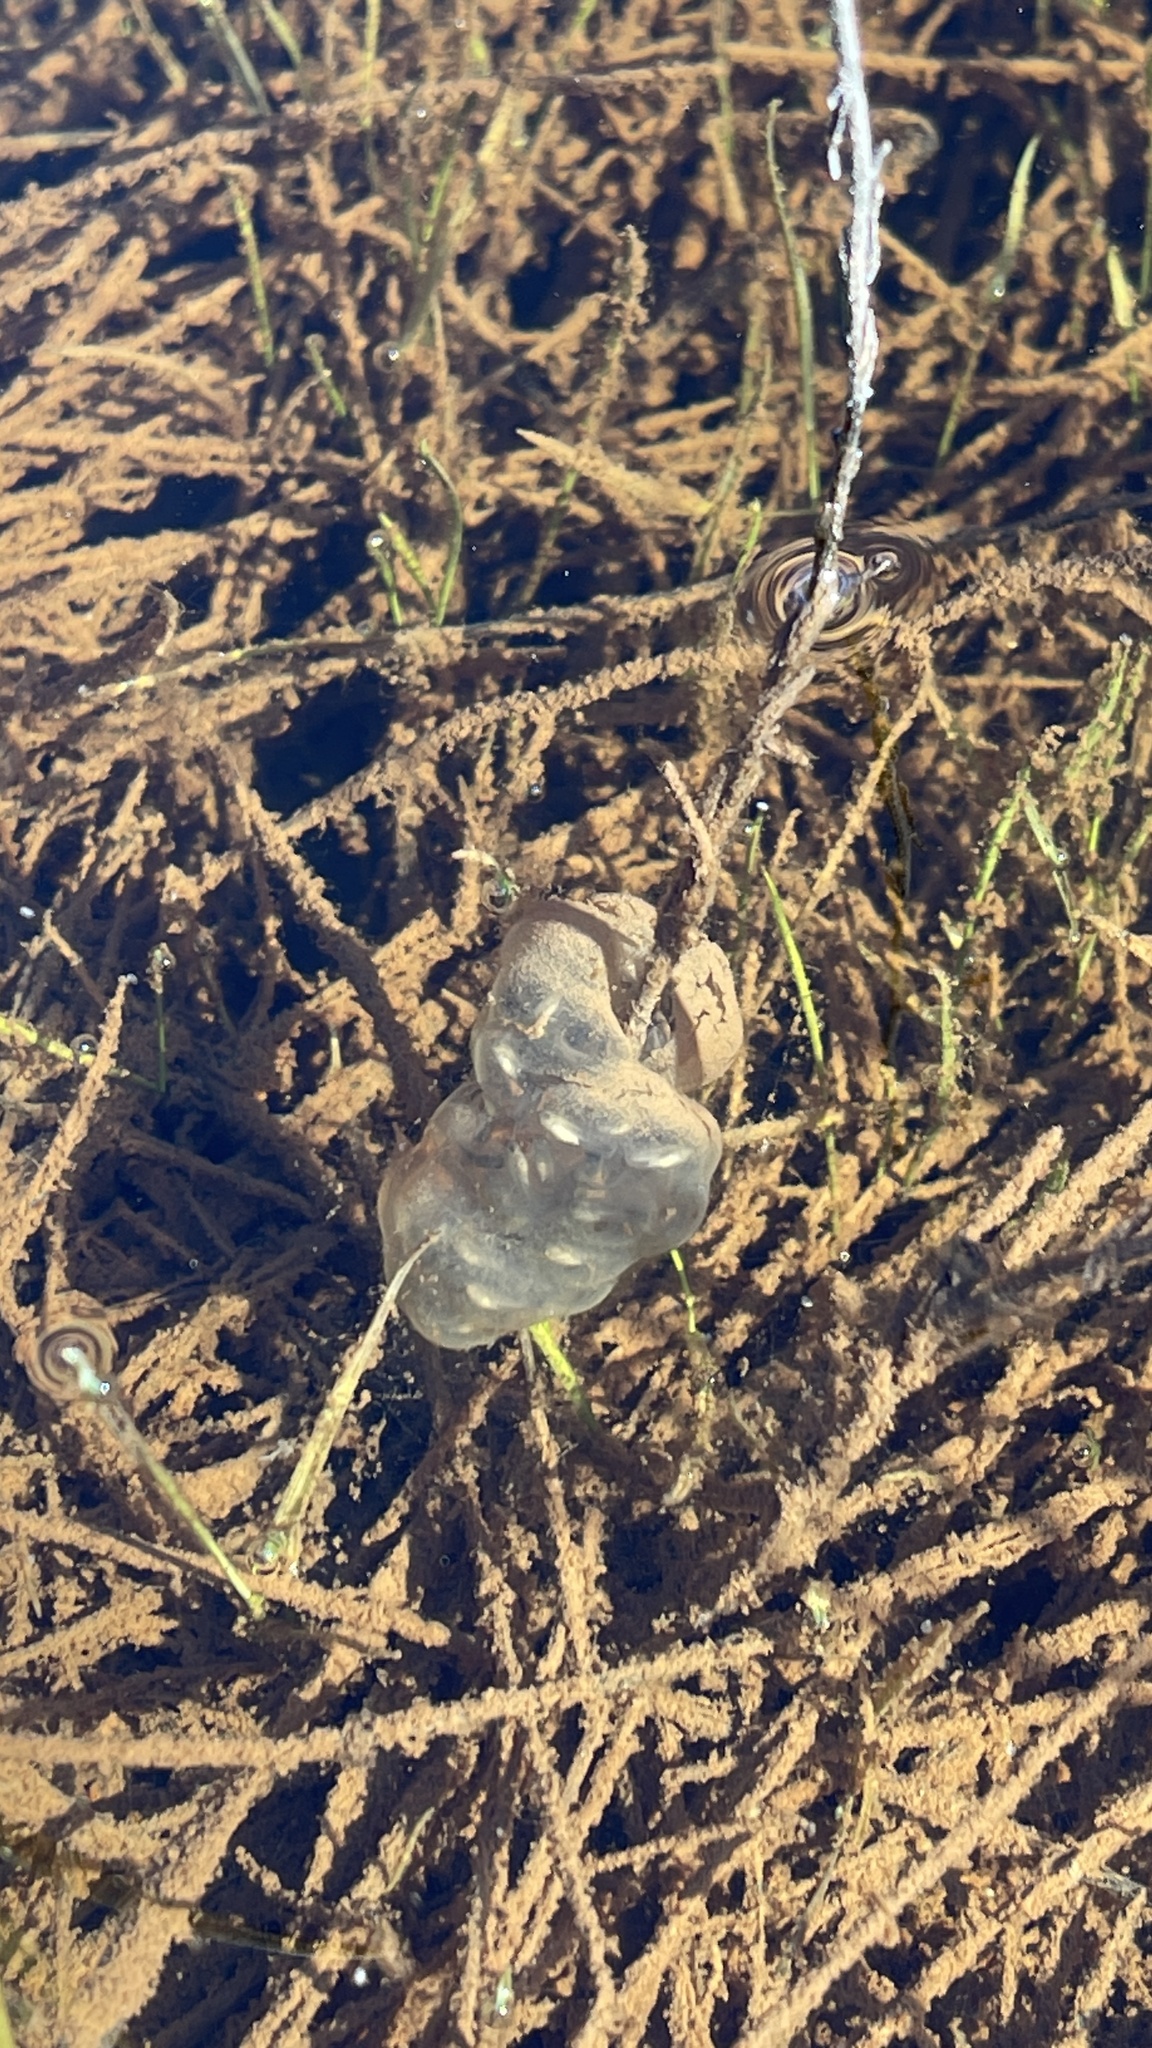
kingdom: Animalia
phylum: Chordata
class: Amphibia
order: Anura
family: Hylidae
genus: Pseudacris
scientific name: Pseudacris regilla
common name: Pacific chorus frog
